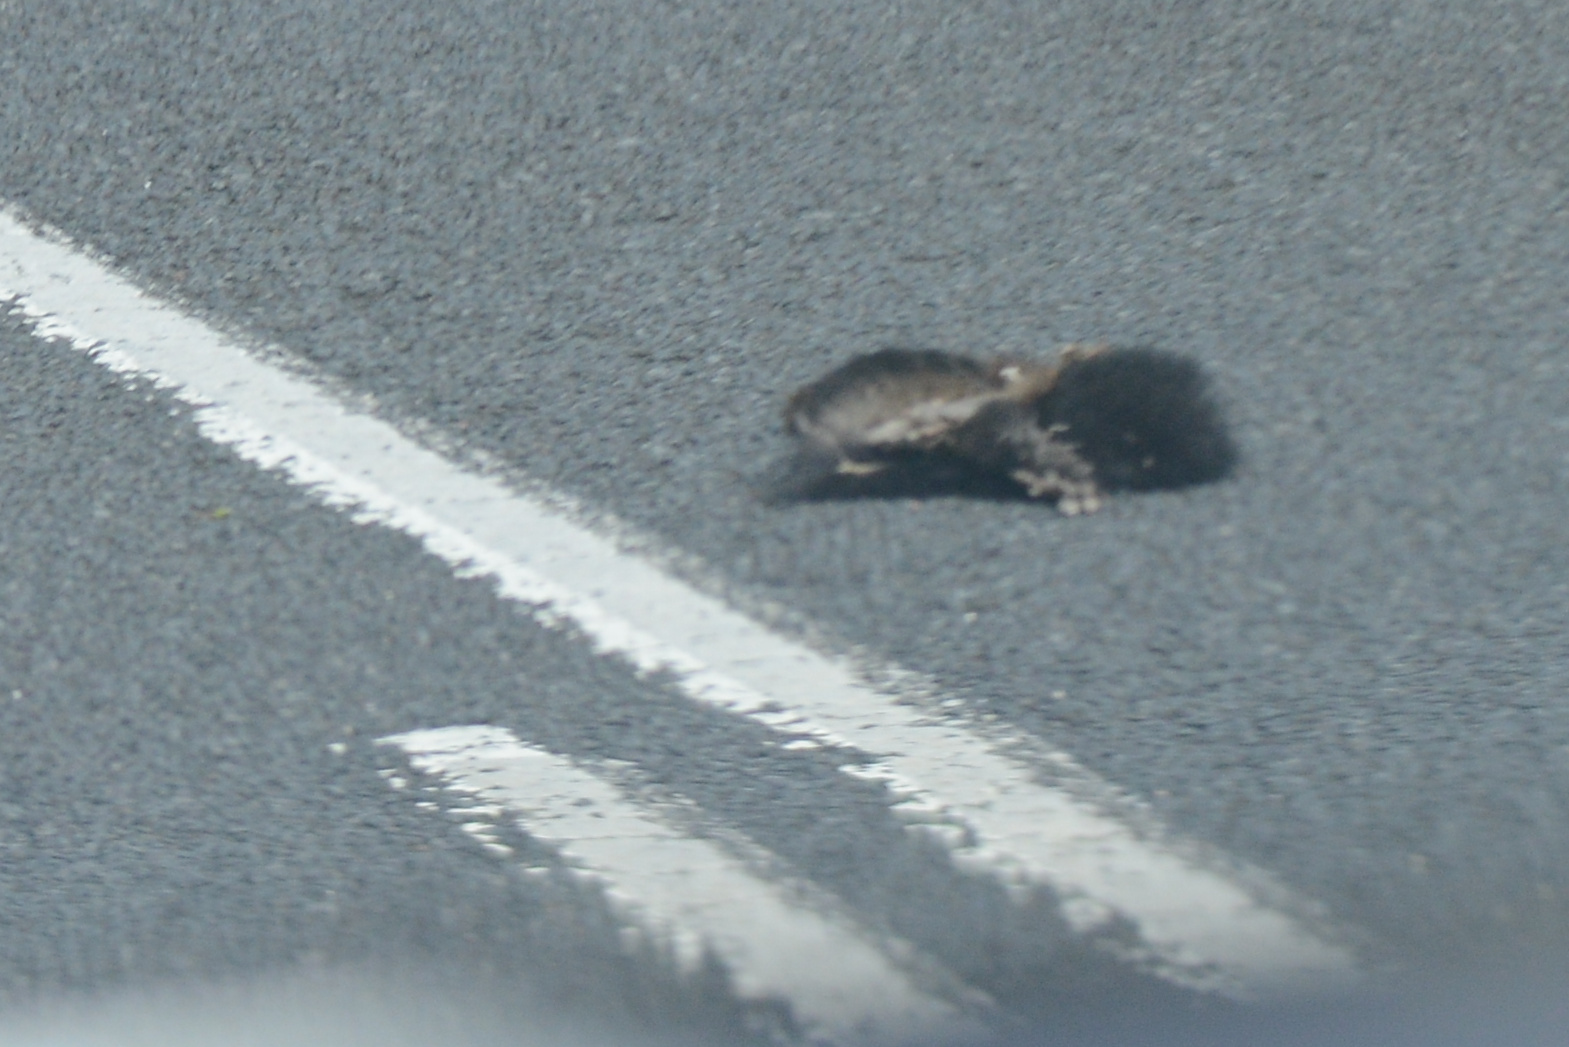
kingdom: Animalia
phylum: Chordata
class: Mammalia
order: Diprotodontia
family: Phalangeridae
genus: Trichosurus
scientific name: Trichosurus vulpecula
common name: Common brushtail
